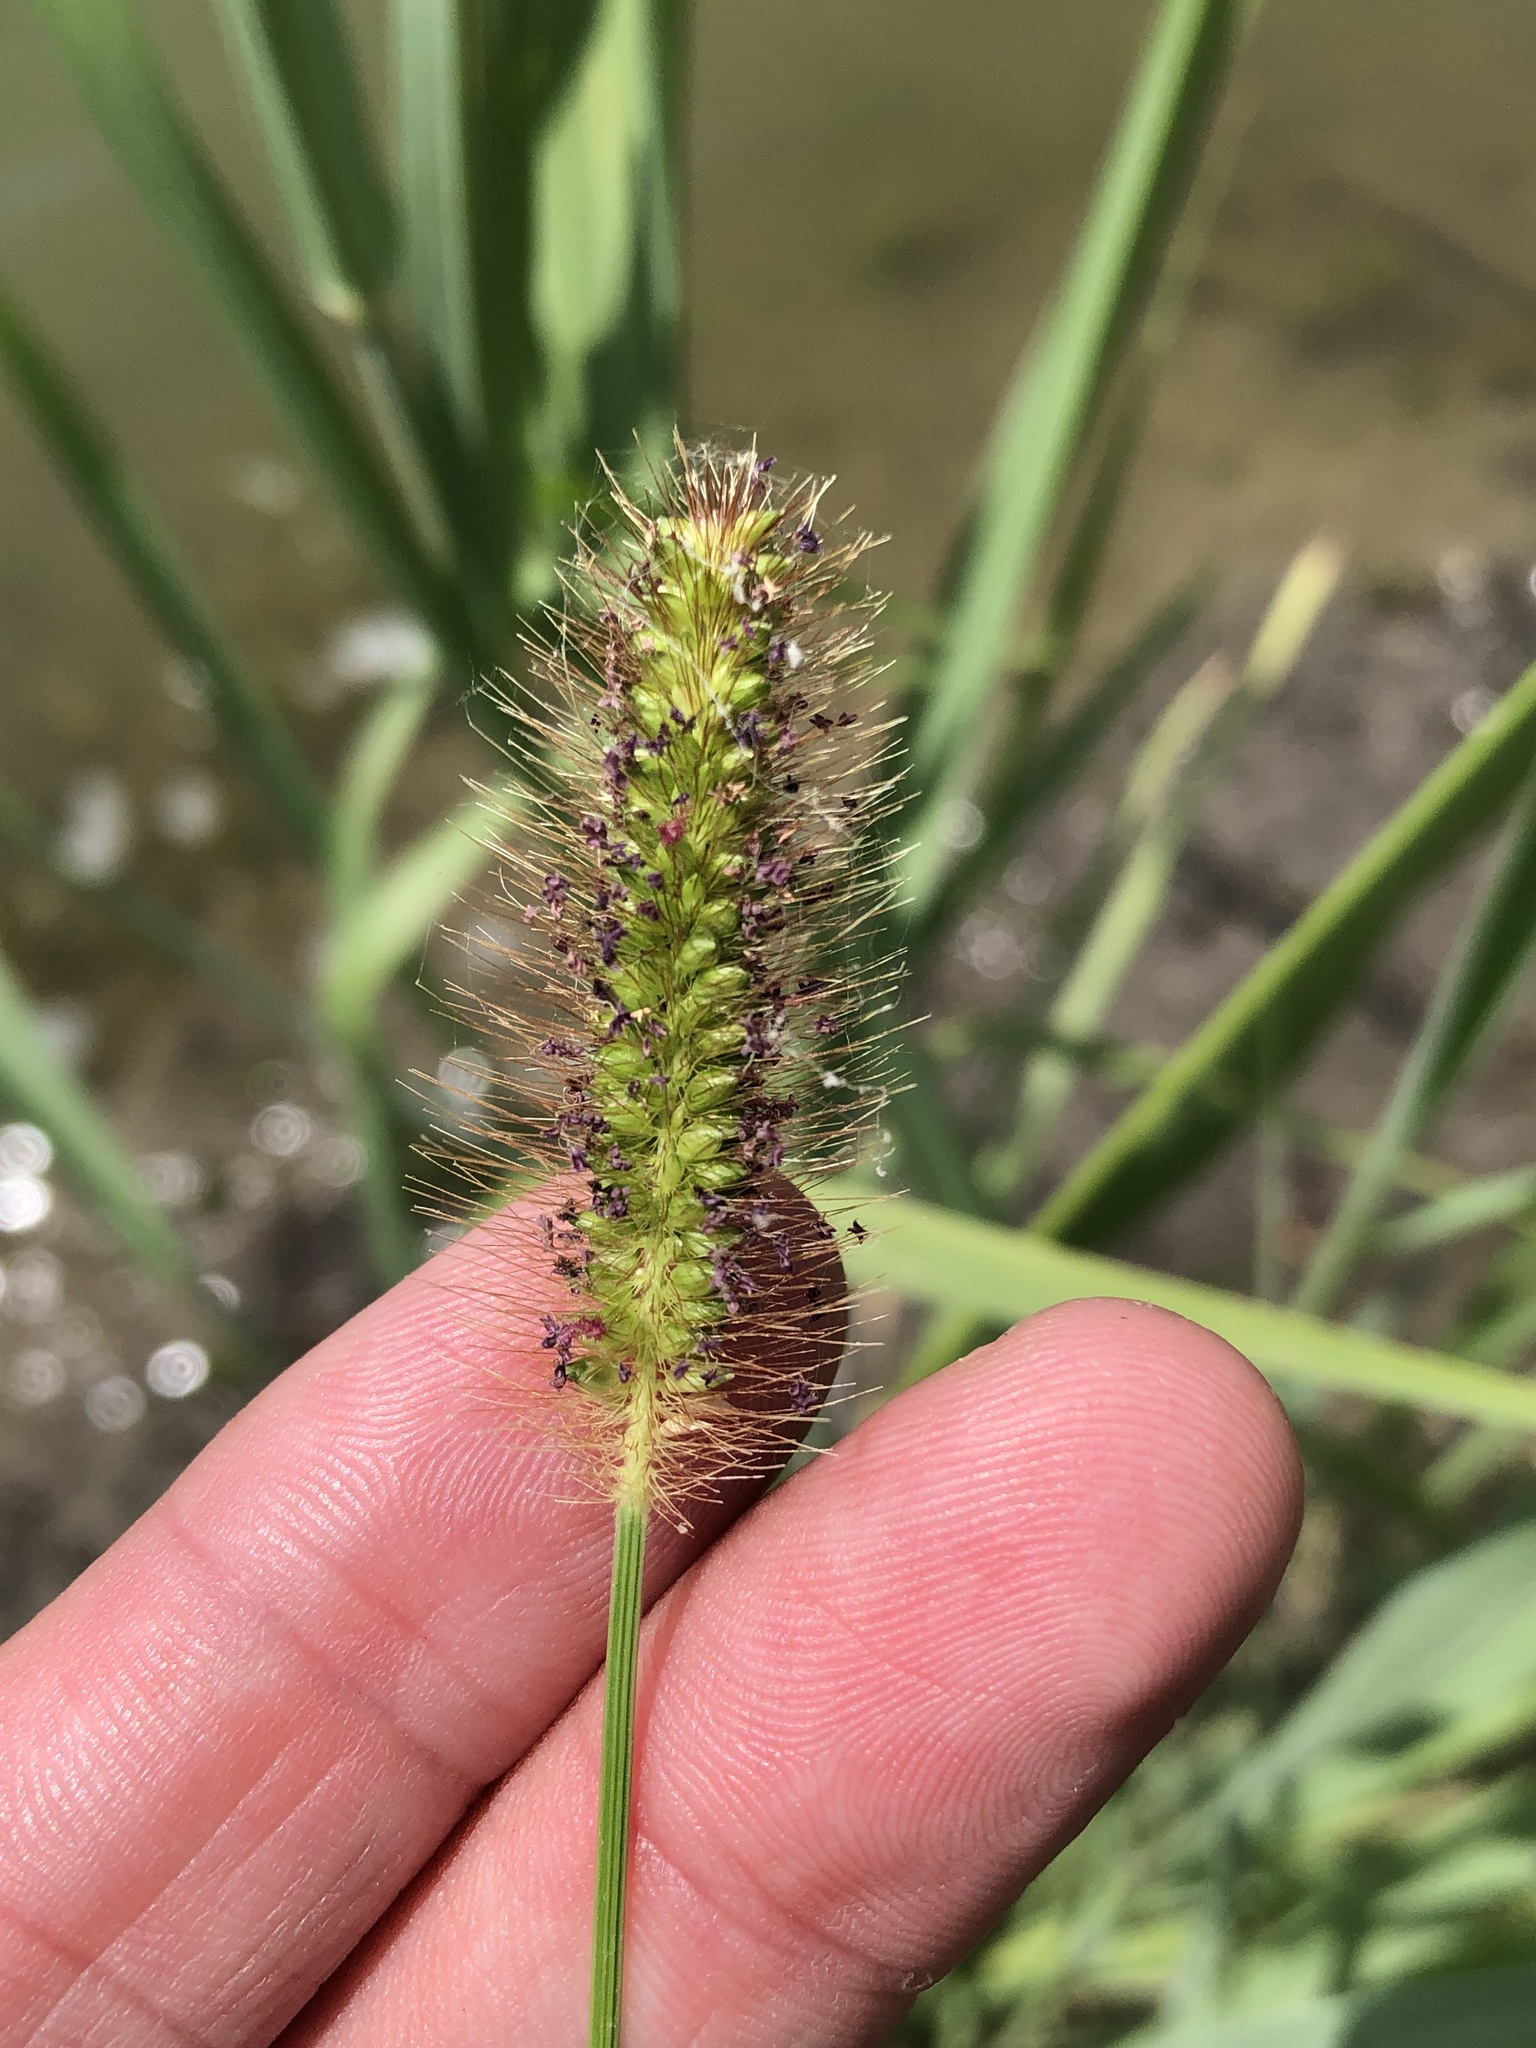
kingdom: Plantae
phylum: Tracheophyta
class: Liliopsida
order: Poales
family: Poaceae
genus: Setaria
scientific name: Setaria parviflora
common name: Knotroot bristle-grass
